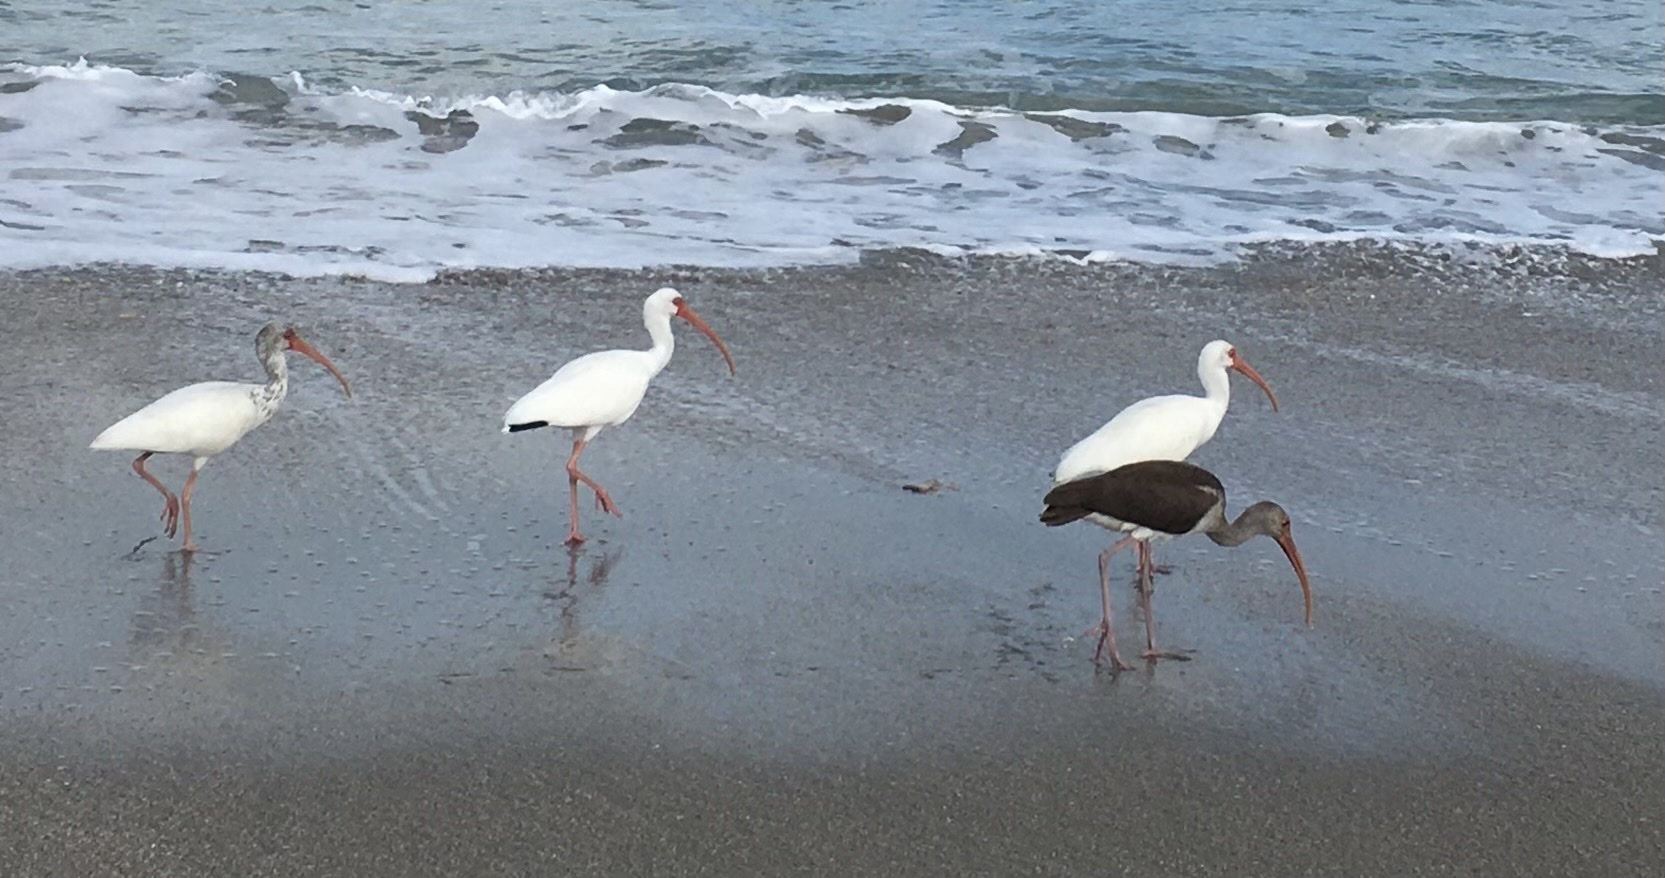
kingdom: Animalia
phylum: Chordata
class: Aves
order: Pelecaniformes
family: Threskiornithidae
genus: Eudocimus
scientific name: Eudocimus albus
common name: White ibis
